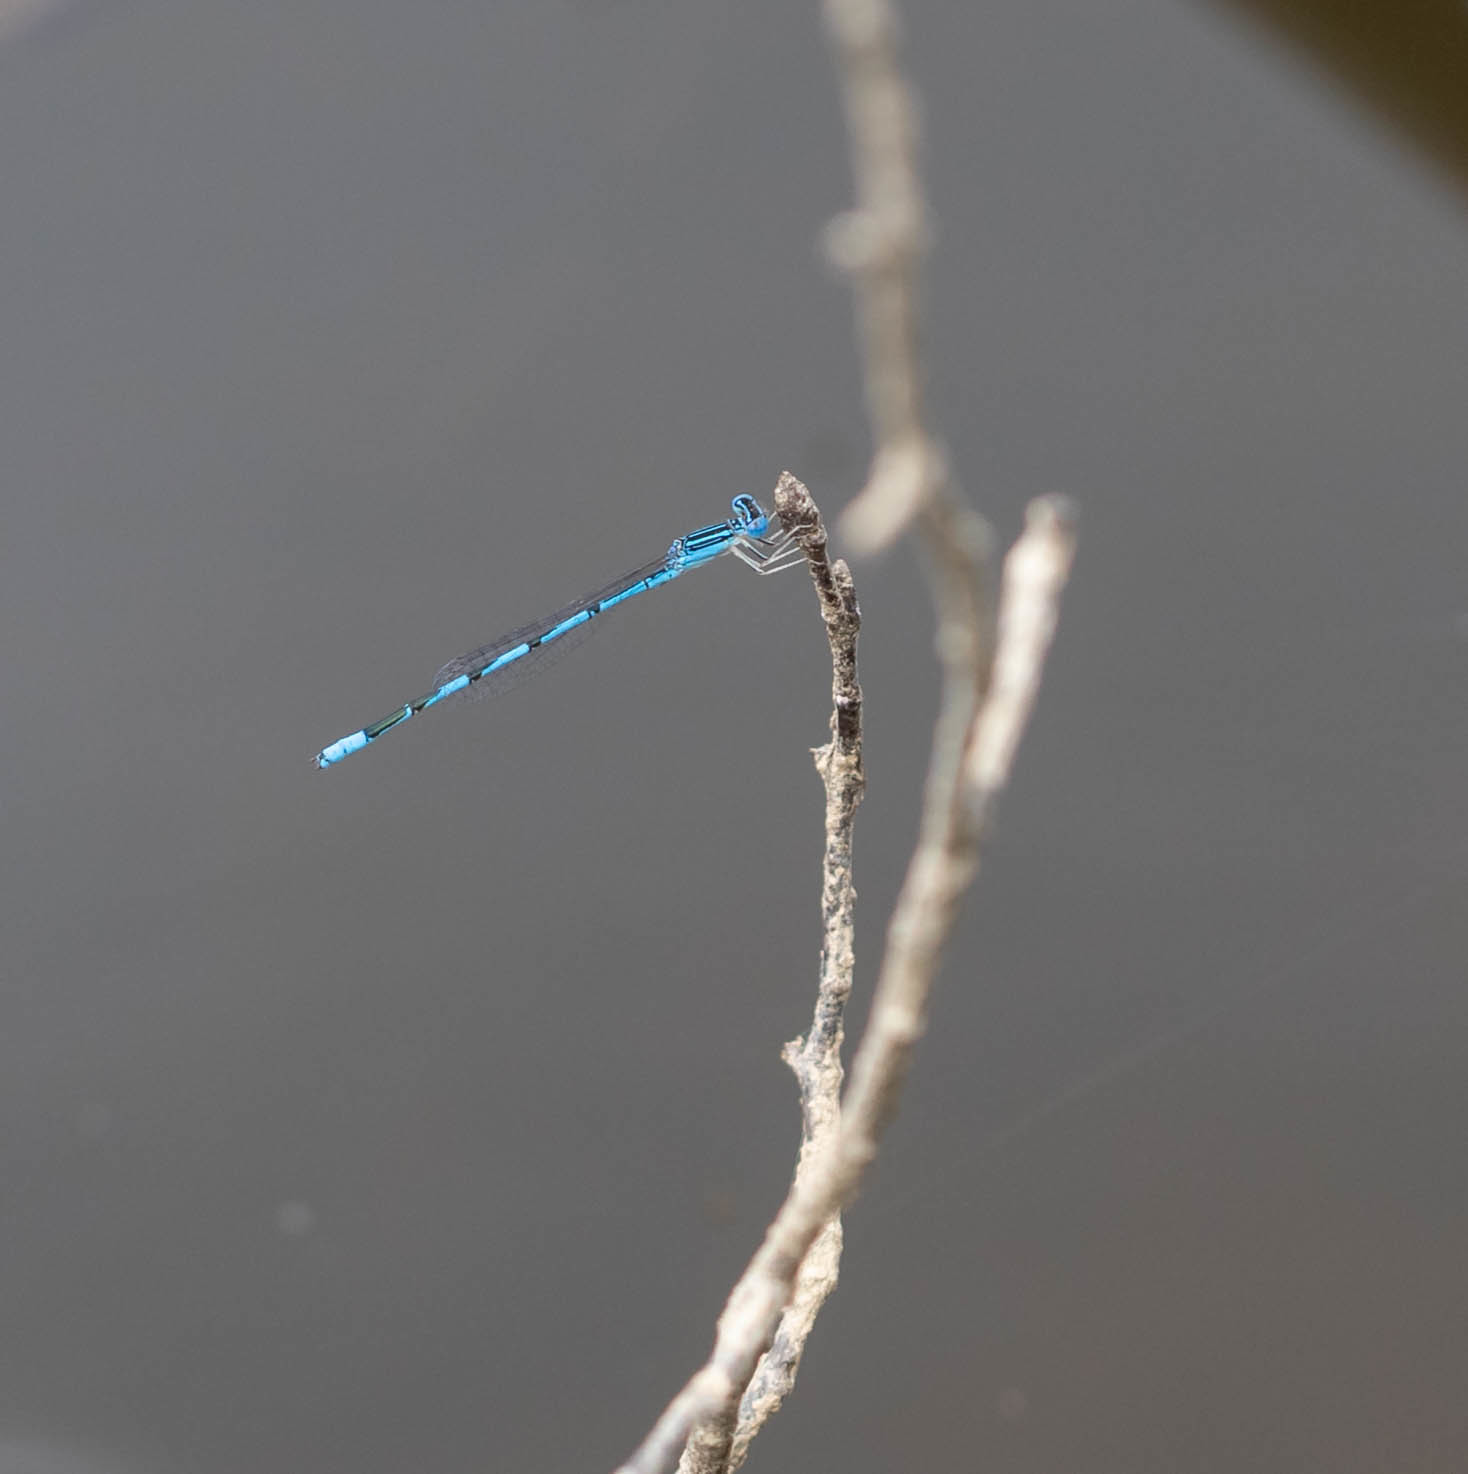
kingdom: Animalia
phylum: Arthropoda
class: Insecta
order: Odonata
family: Coenagrionidae
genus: Enallagma
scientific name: Enallagma basidens
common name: Double-striped bluet
